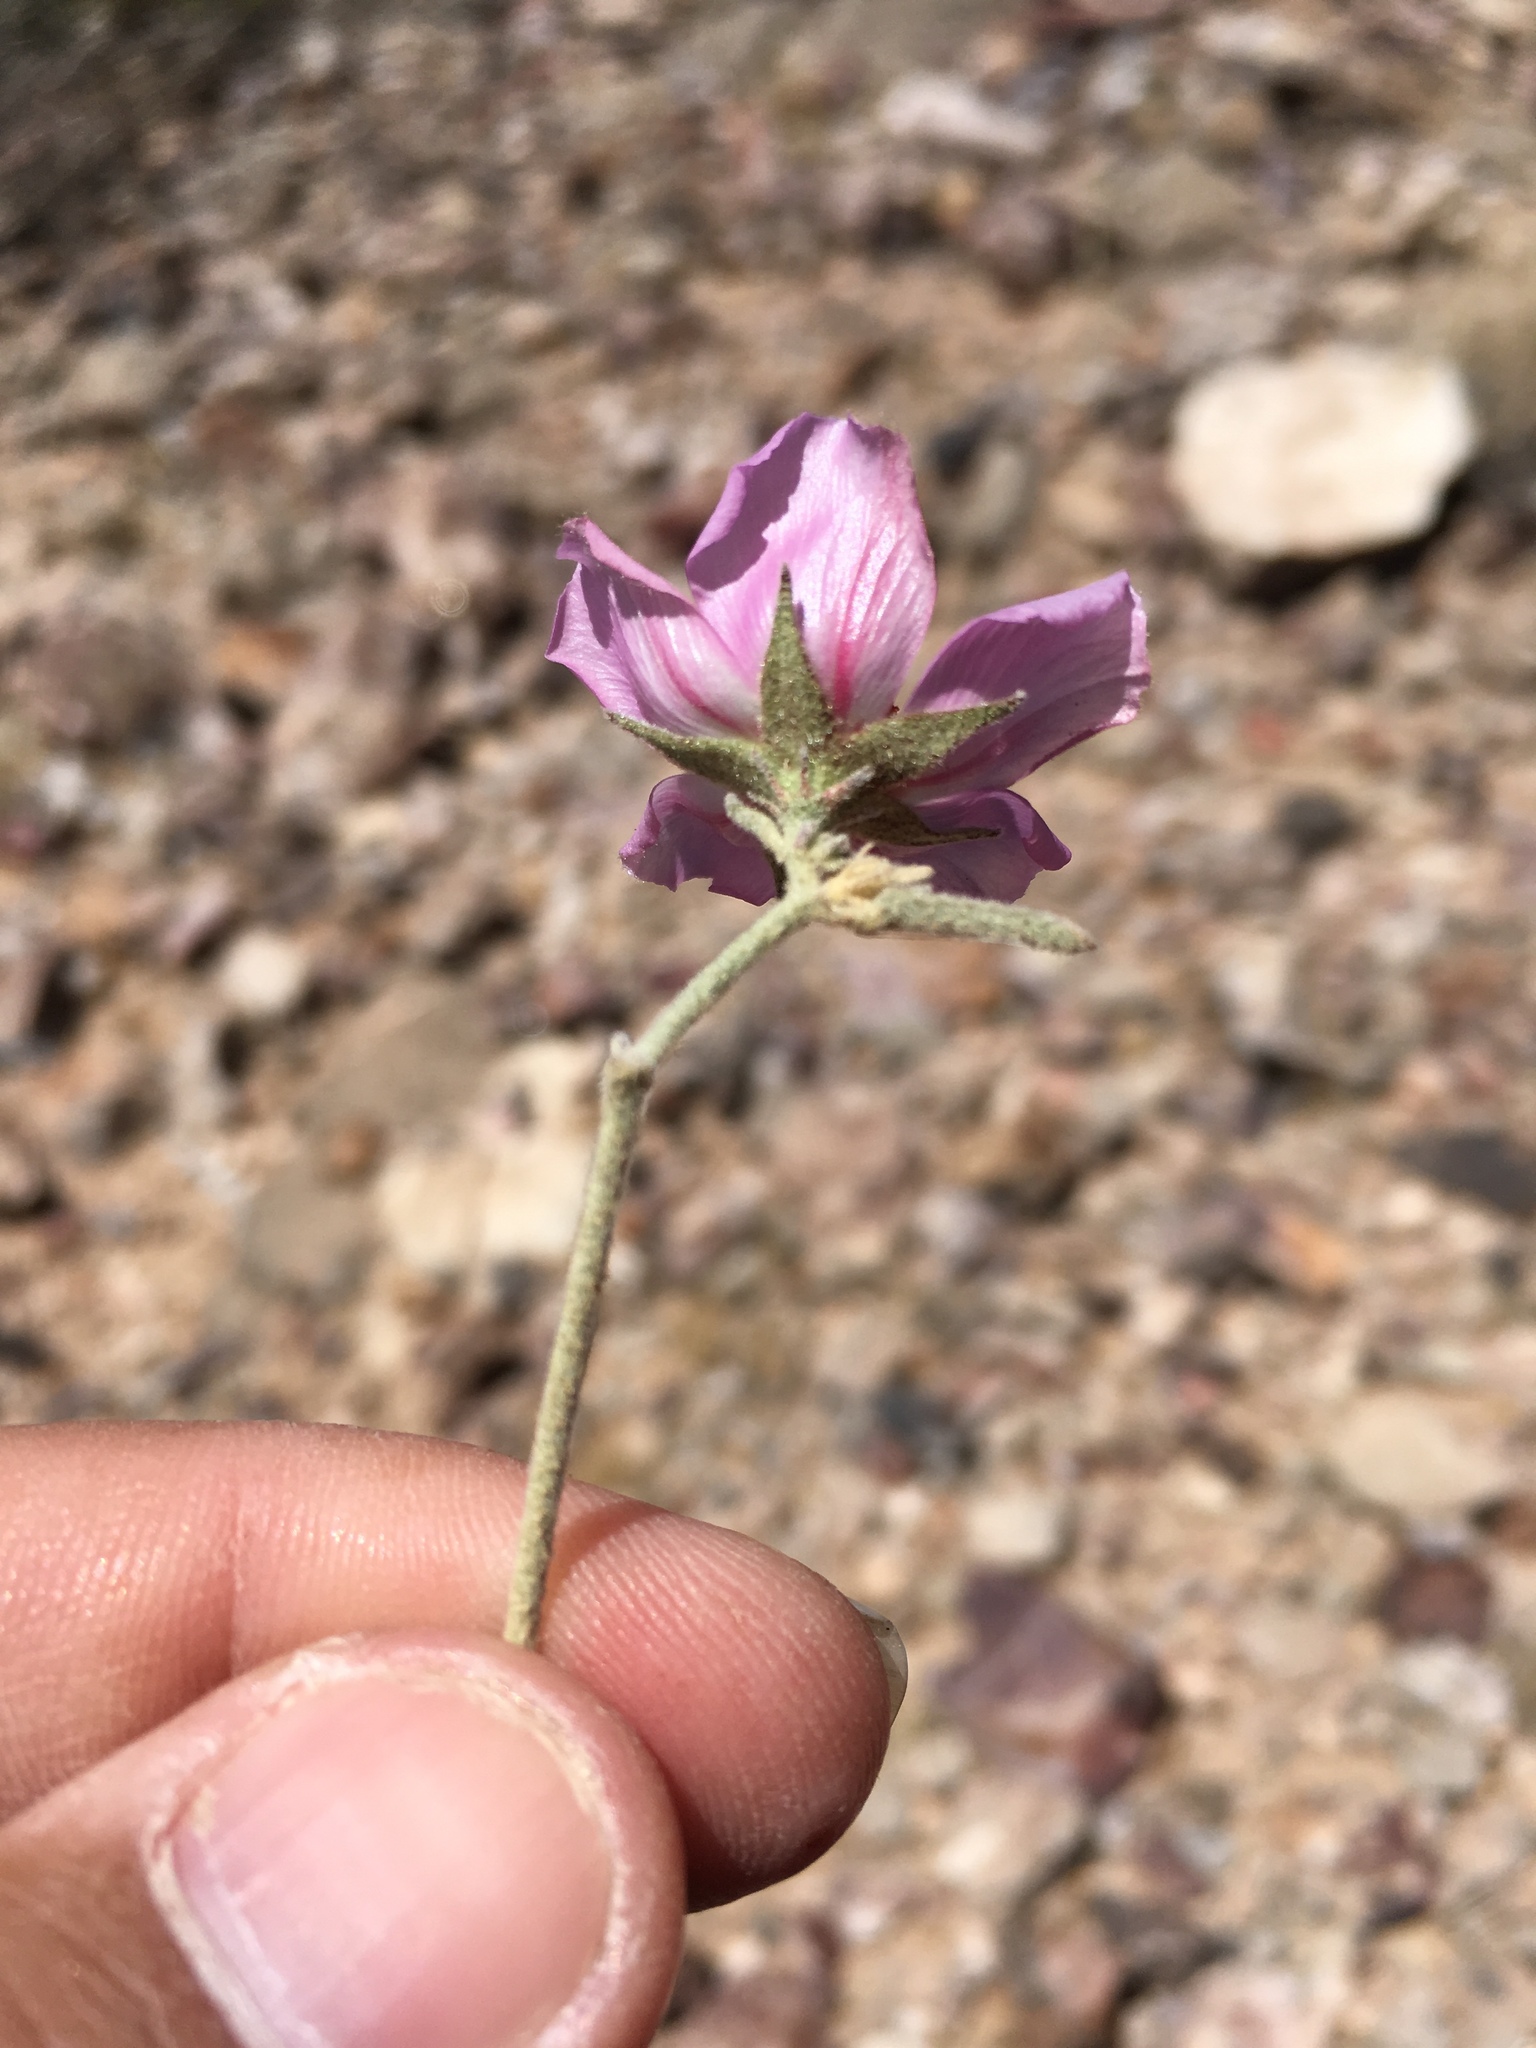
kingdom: Plantae
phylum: Tracheophyta
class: Magnoliopsida
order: Malvales
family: Malvaceae
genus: Hibiscus
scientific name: Hibiscus denudatus
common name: Paleface
